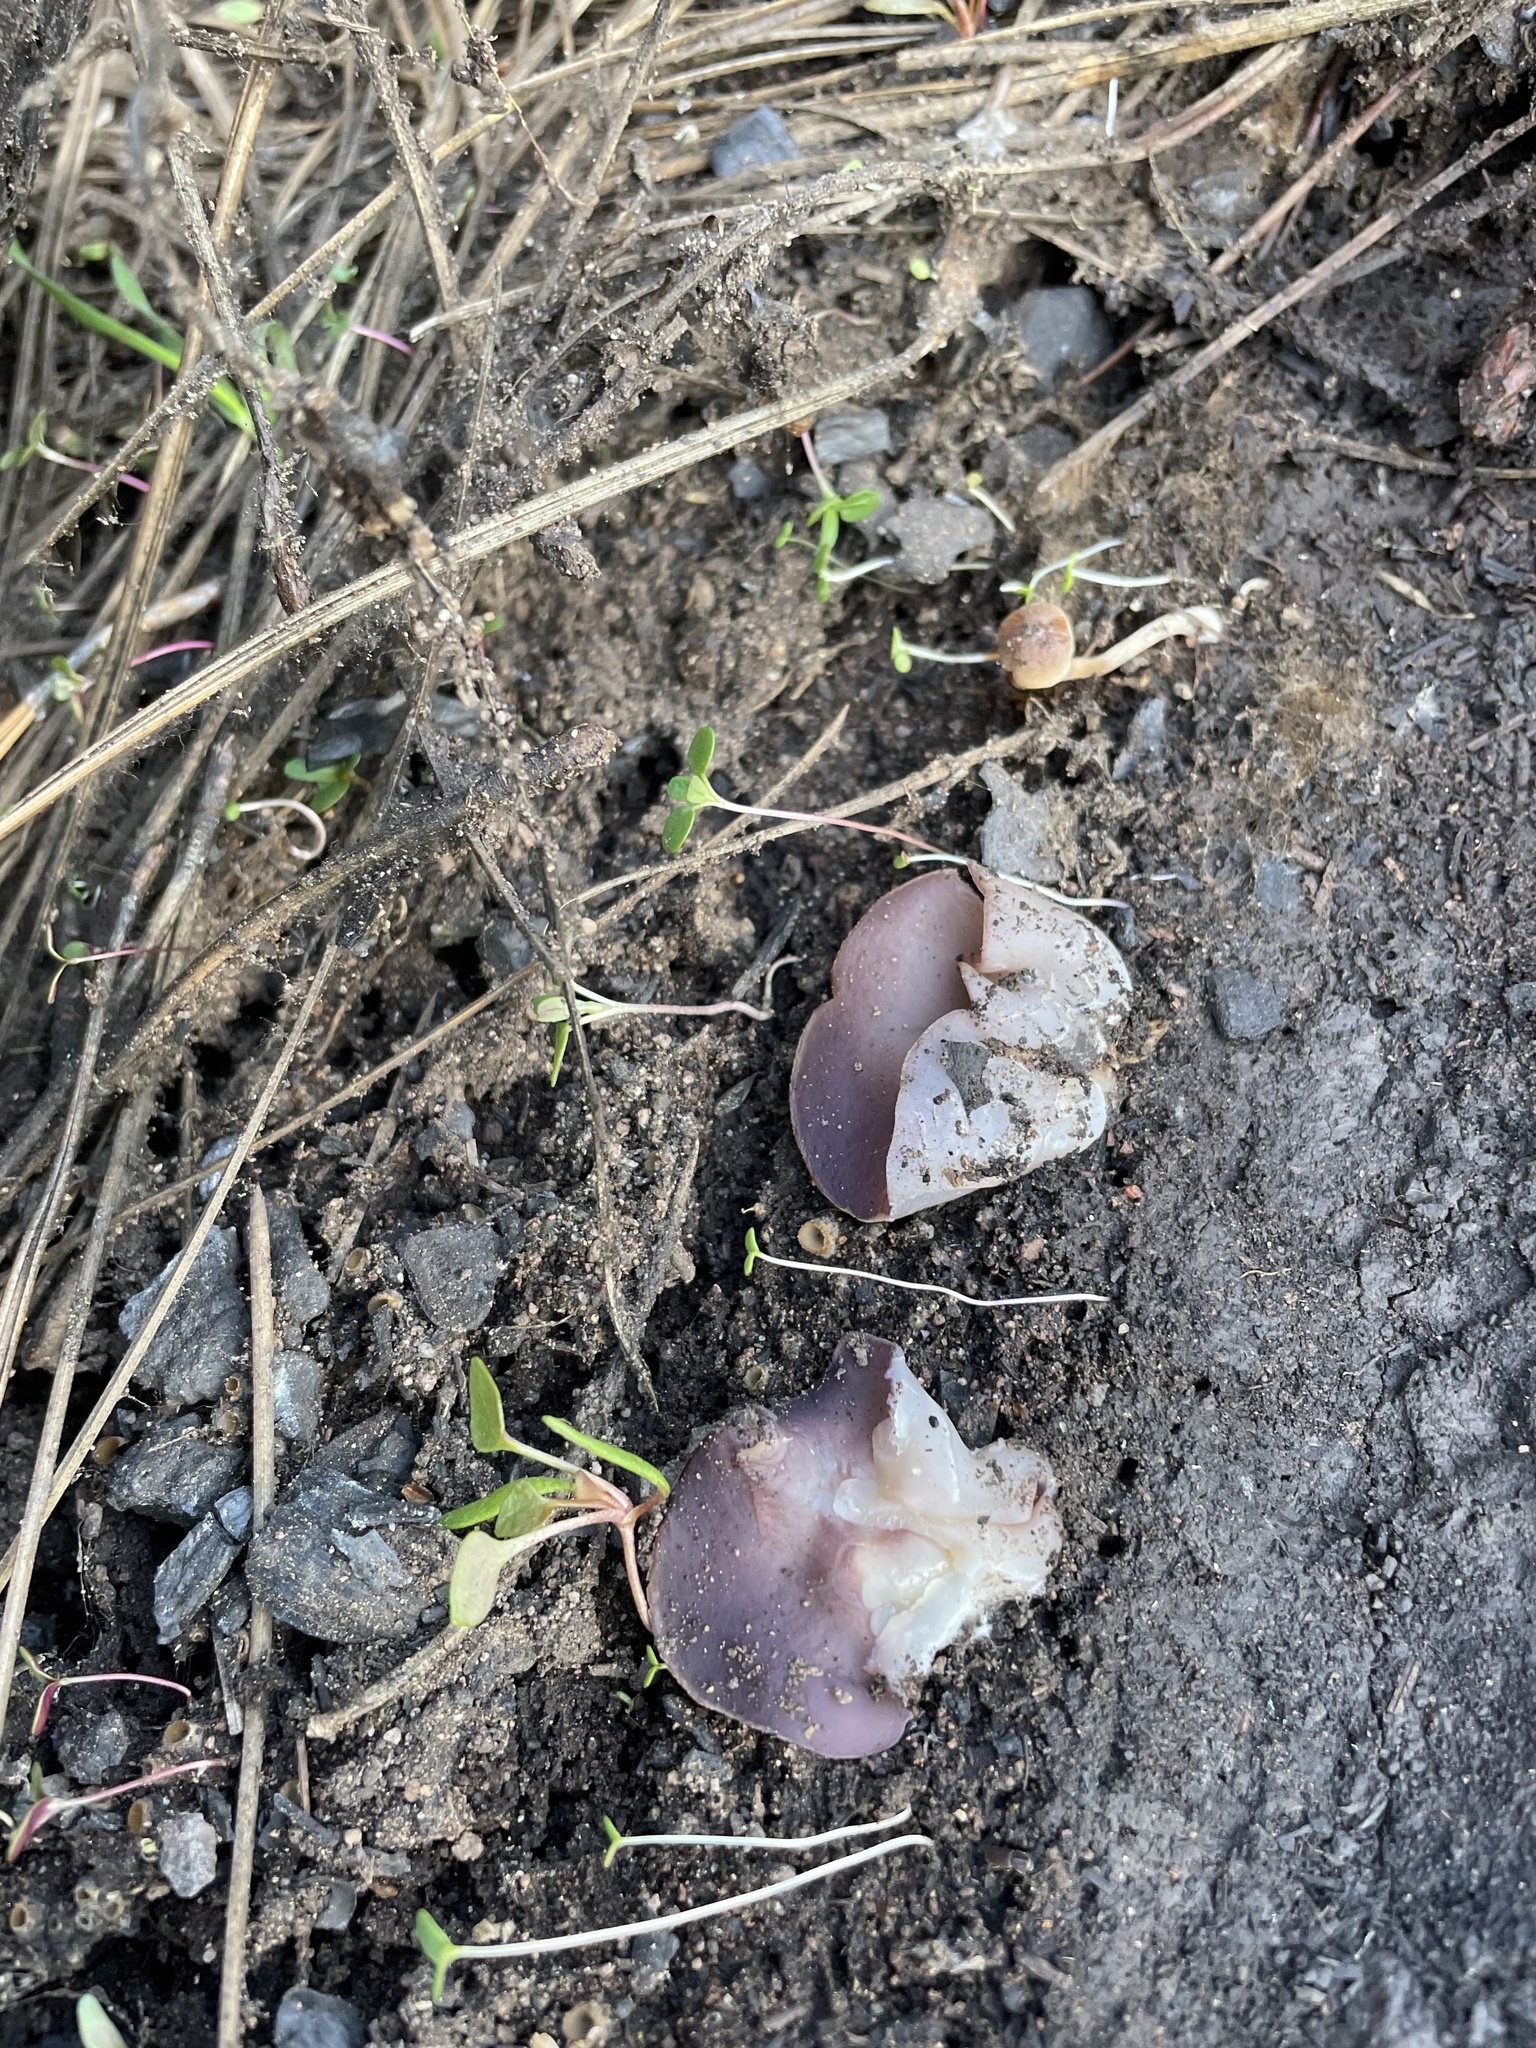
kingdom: Fungi
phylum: Ascomycota
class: Pezizomycetes
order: Pezizales
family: Pezizaceae
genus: Geoscypha
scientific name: Geoscypha violacea
